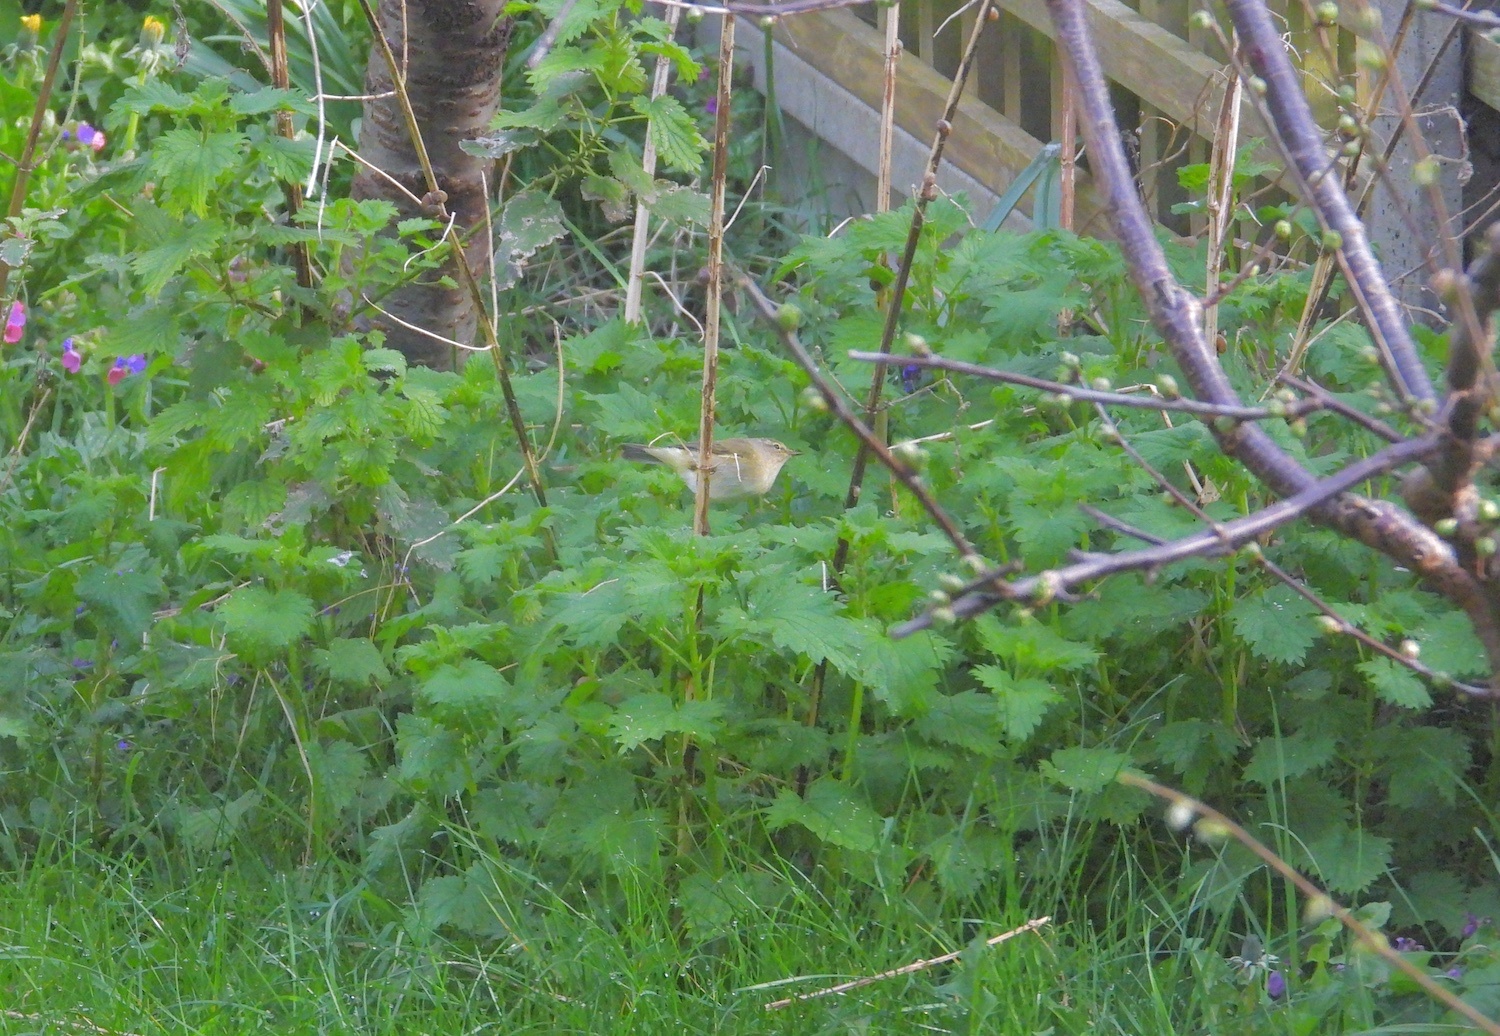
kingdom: Animalia
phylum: Chordata
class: Aves
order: Passeriformes
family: Phylloscopidae
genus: Phylloscopus
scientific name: Phylloscopus collybita
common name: Common chiffchaff
